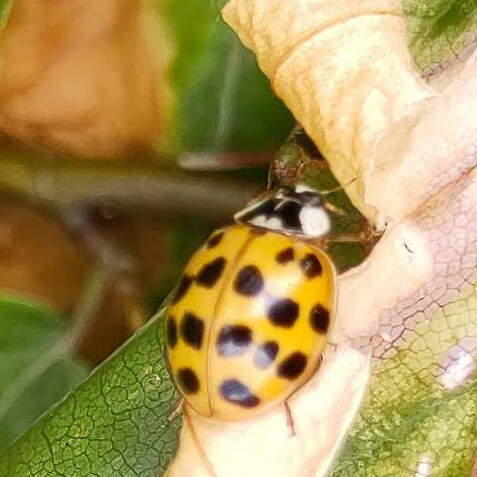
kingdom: Animalia
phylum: Arthropoda
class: Insecta
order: Coleoptera
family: Coccinellidae
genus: Harmonia
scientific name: Harmonia axyridis
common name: Harlequin ladybird
